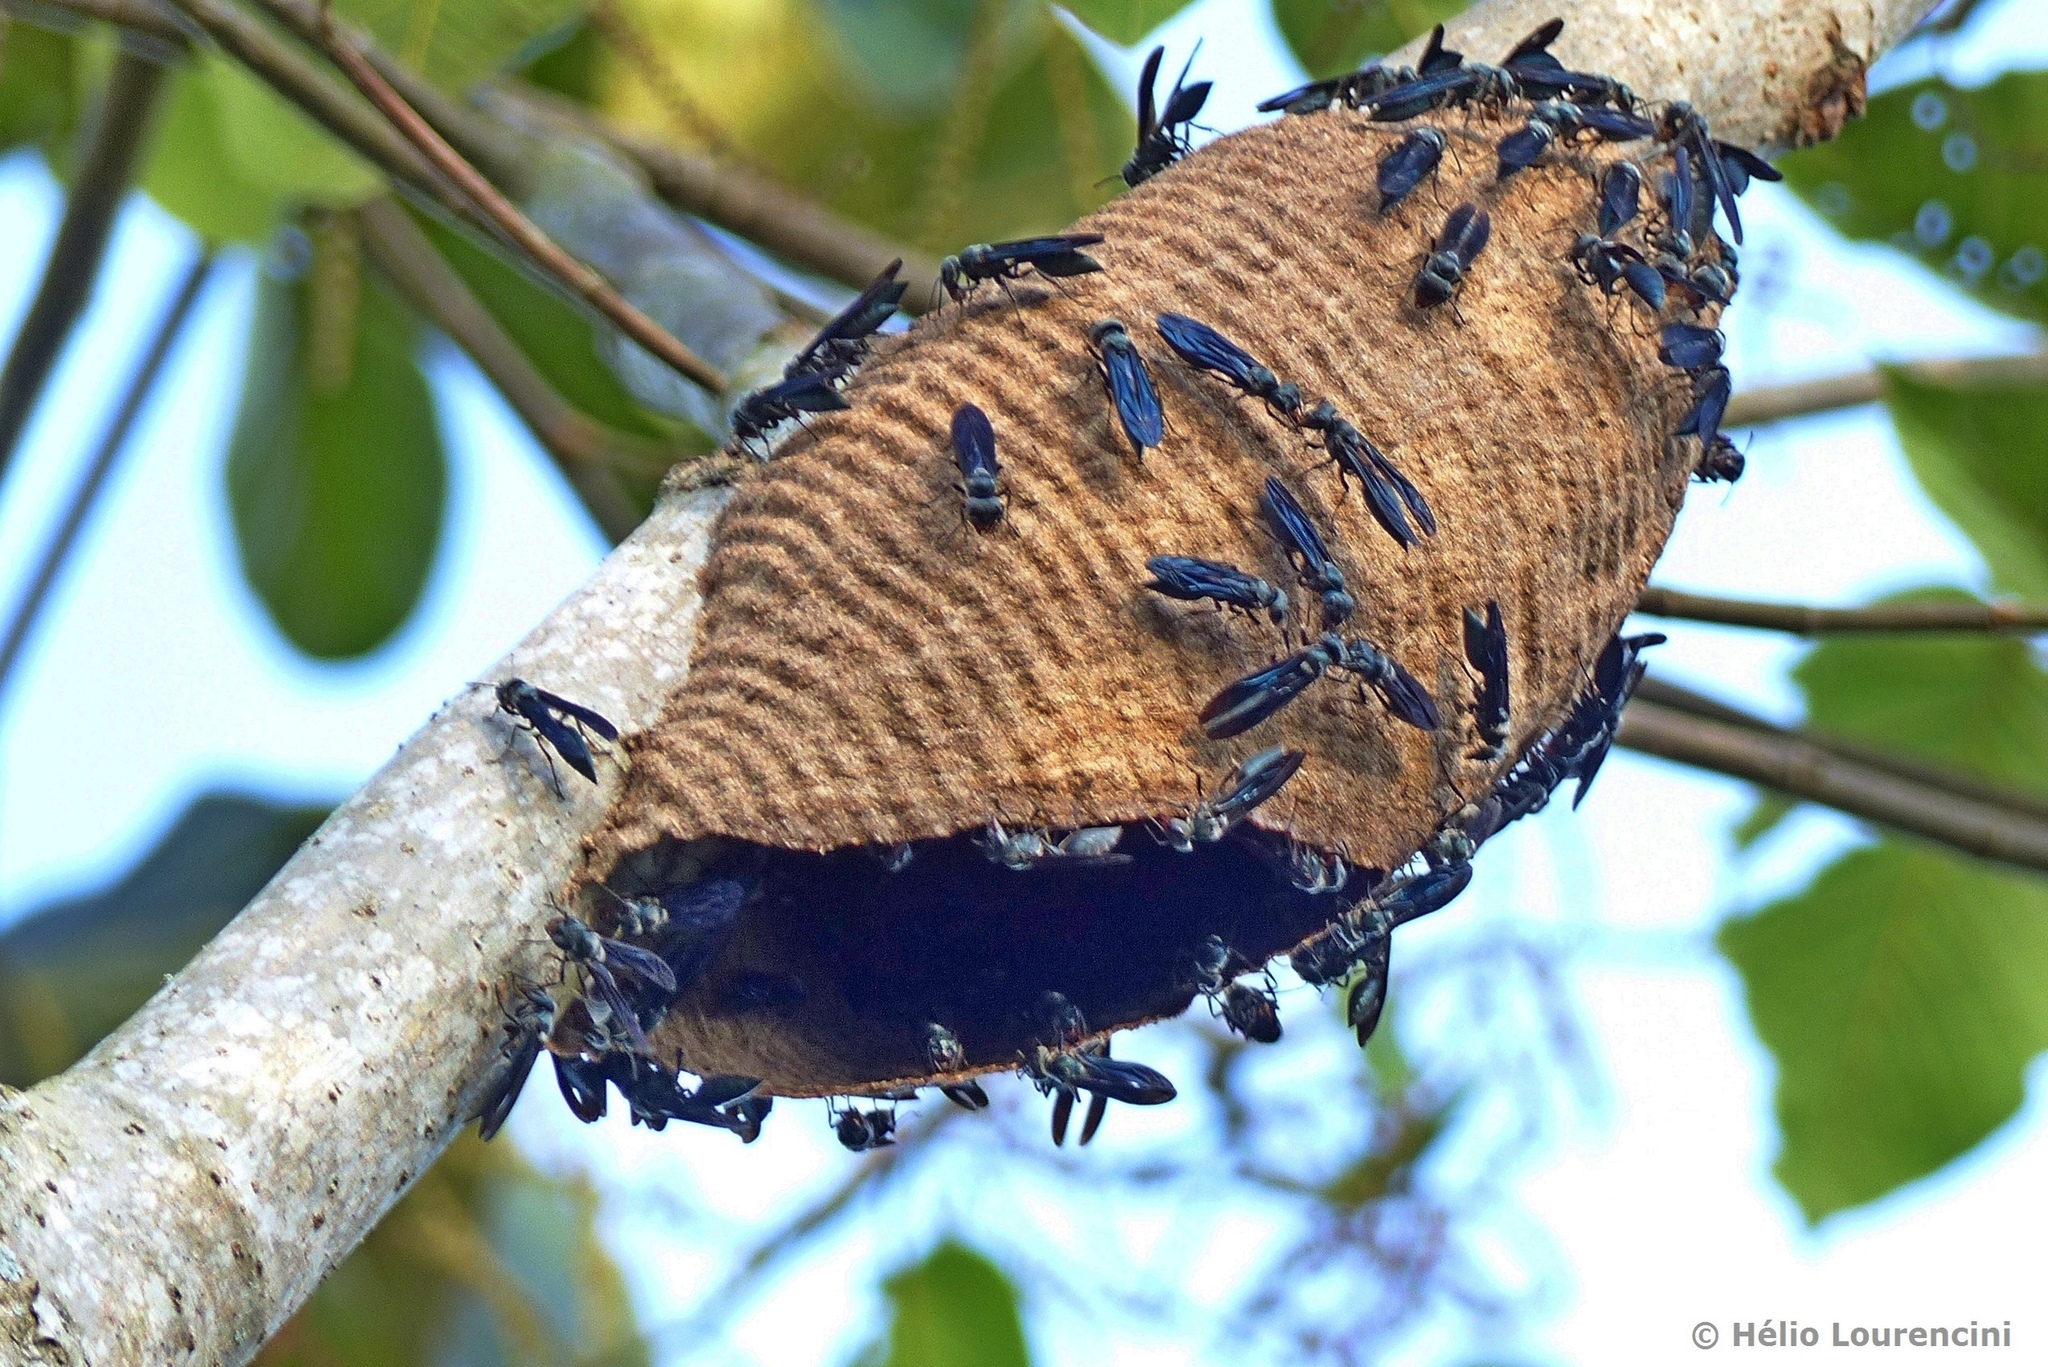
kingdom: Animalia
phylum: Arthropoda
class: Insecta
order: Hymenoptera
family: Vespidae
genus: Synoeca
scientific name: Synoeca cyanea
